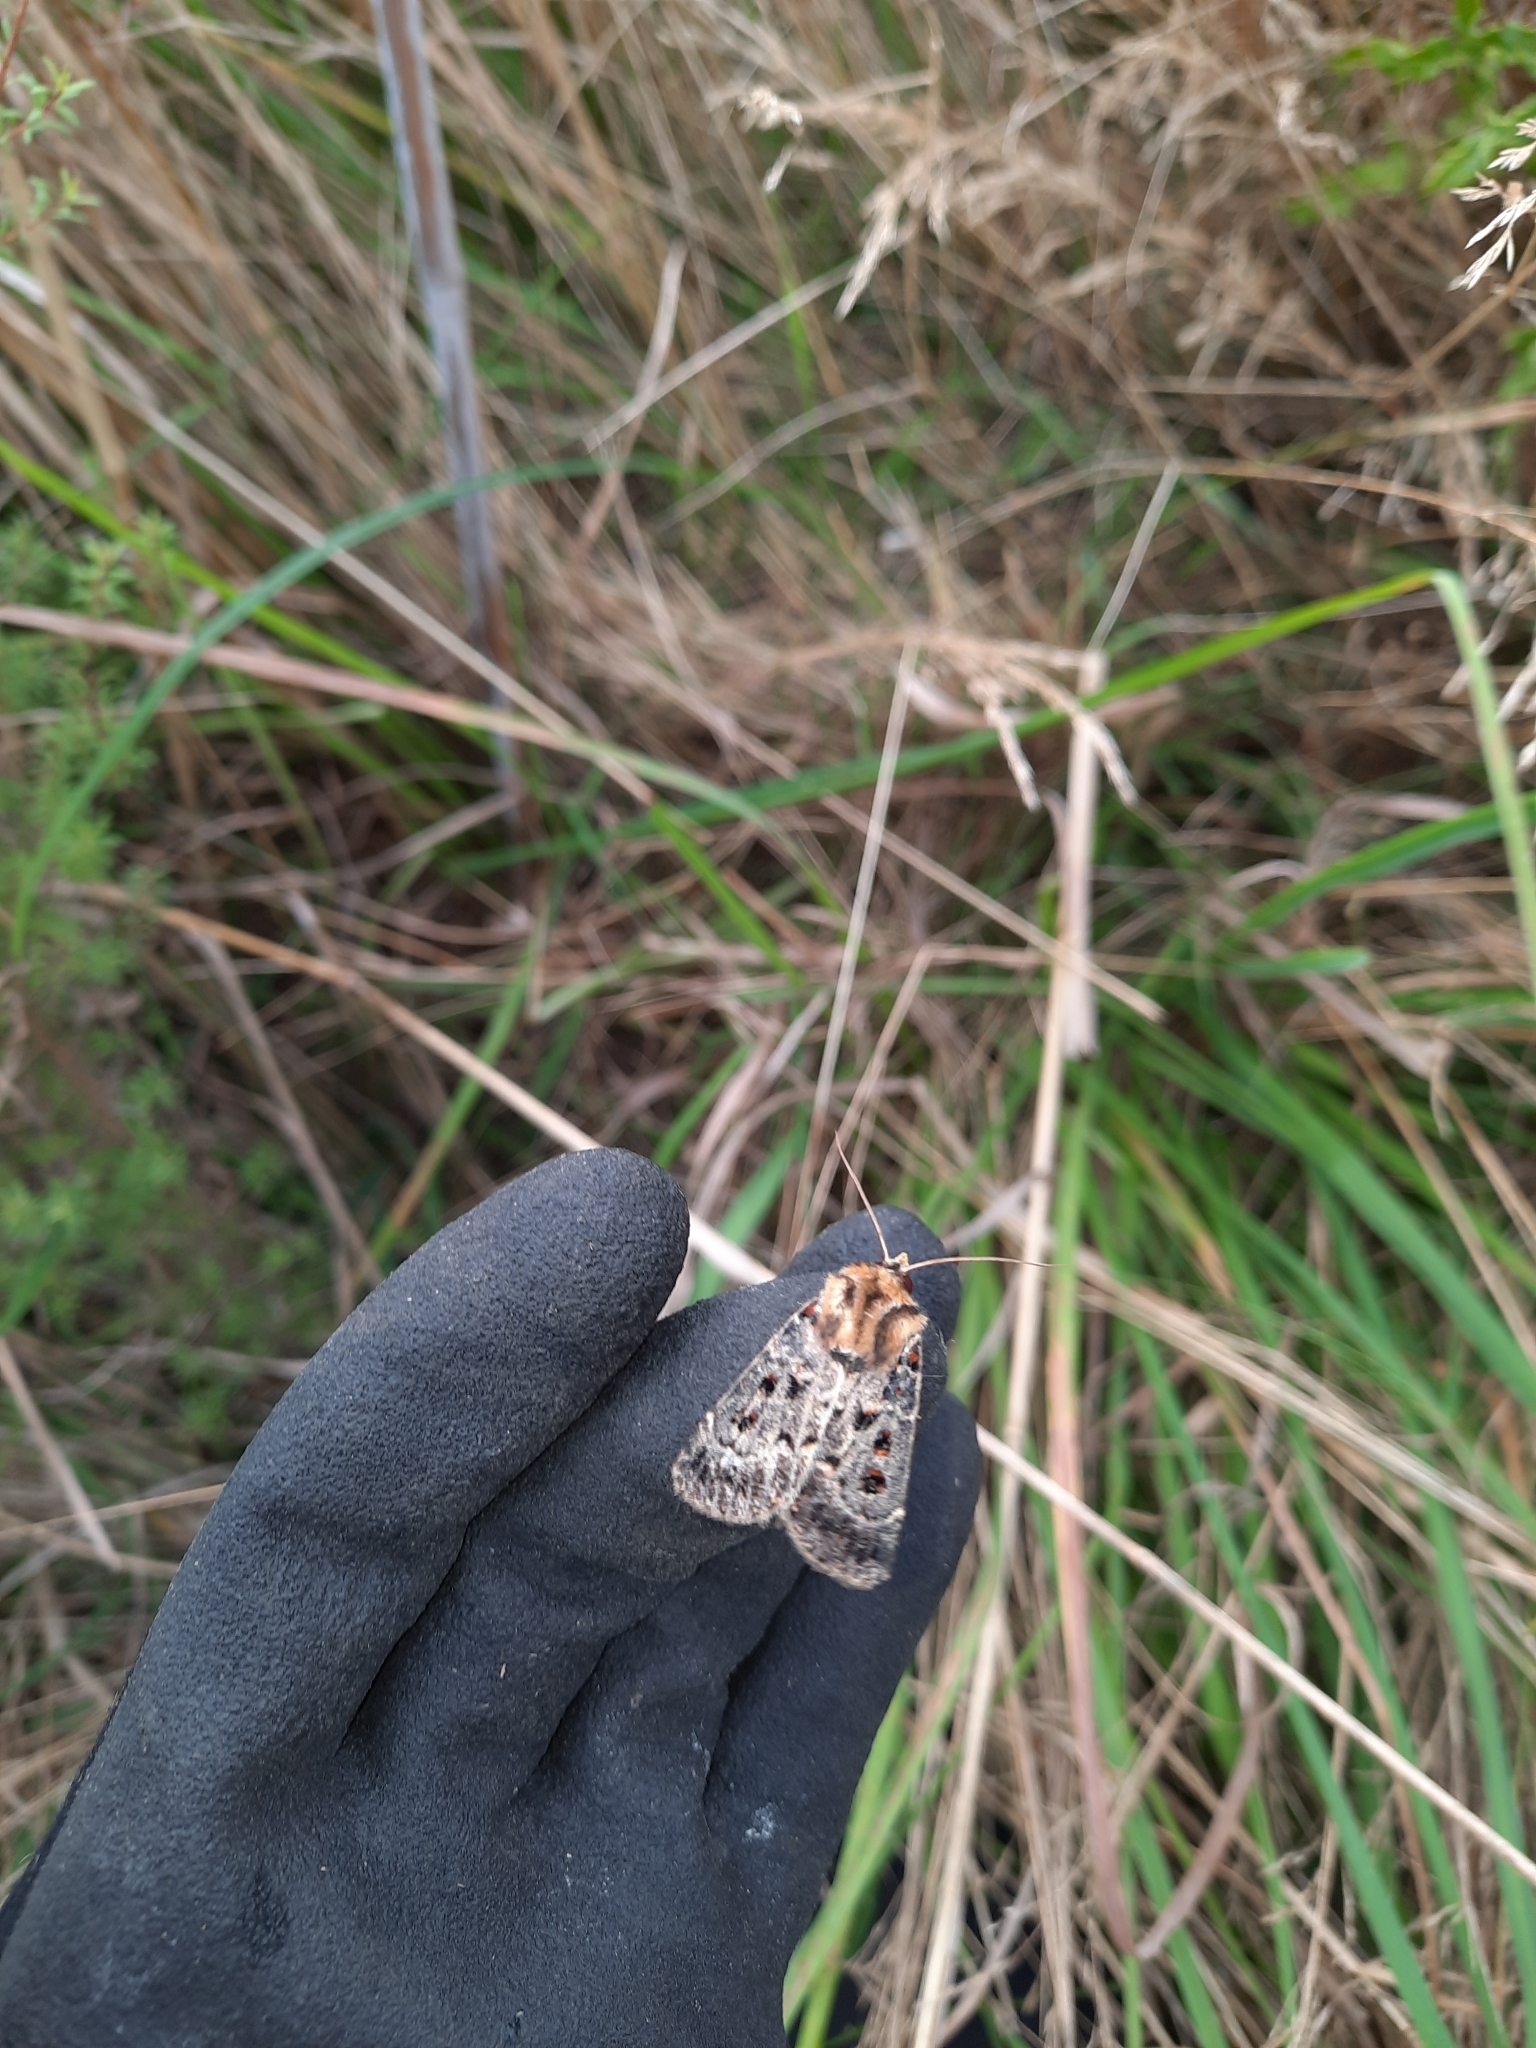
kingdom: Animalia
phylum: Arthropoda
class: Insecta
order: Lepidoptera
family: Noctuidae
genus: Proteuxoa
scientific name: Proteuxoa sanguinipuncta
